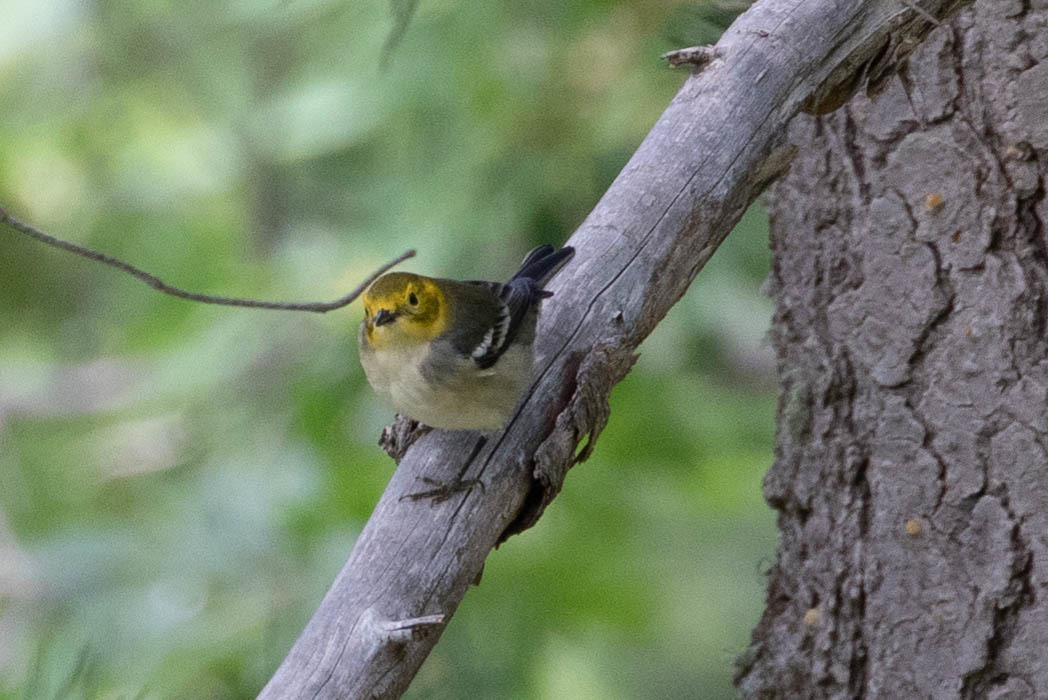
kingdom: Animalia
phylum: Chordata
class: Aves
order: Passeriformes
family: Parulidae
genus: Setophaga
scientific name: Setophaga occidentalis
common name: Hermit warbler
